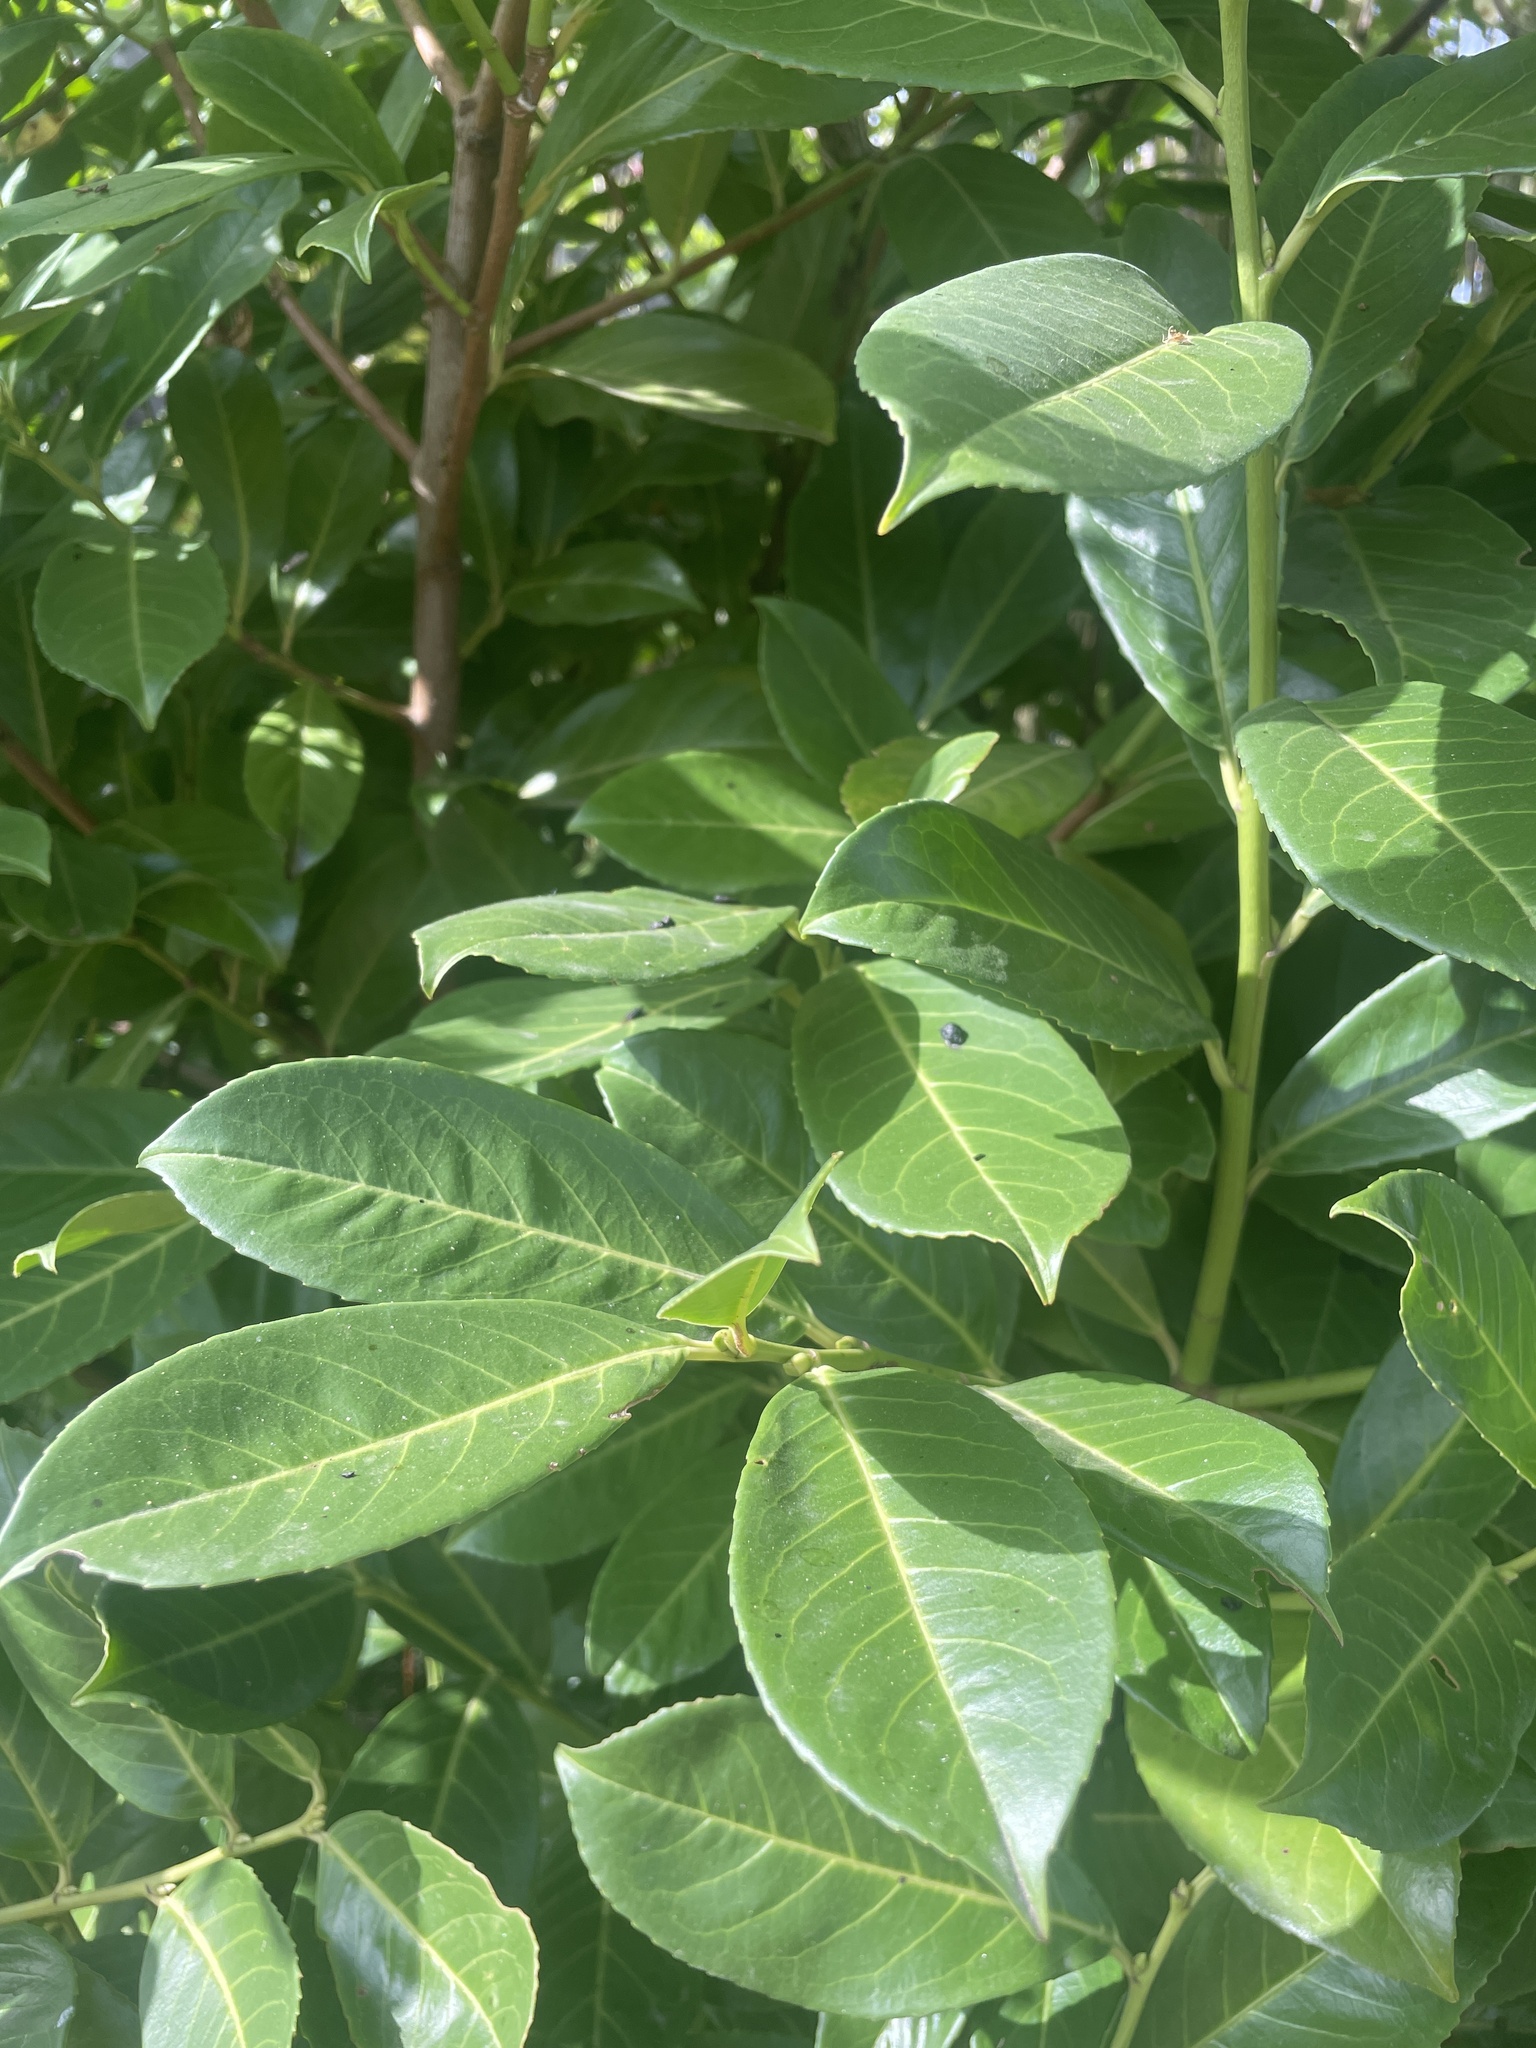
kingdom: Plantae
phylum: Tracheophyta
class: Magnoliopsida
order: Rosales
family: Rosaceae
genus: Prunus
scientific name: Prunus laurocerasus
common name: Cherry laurel
